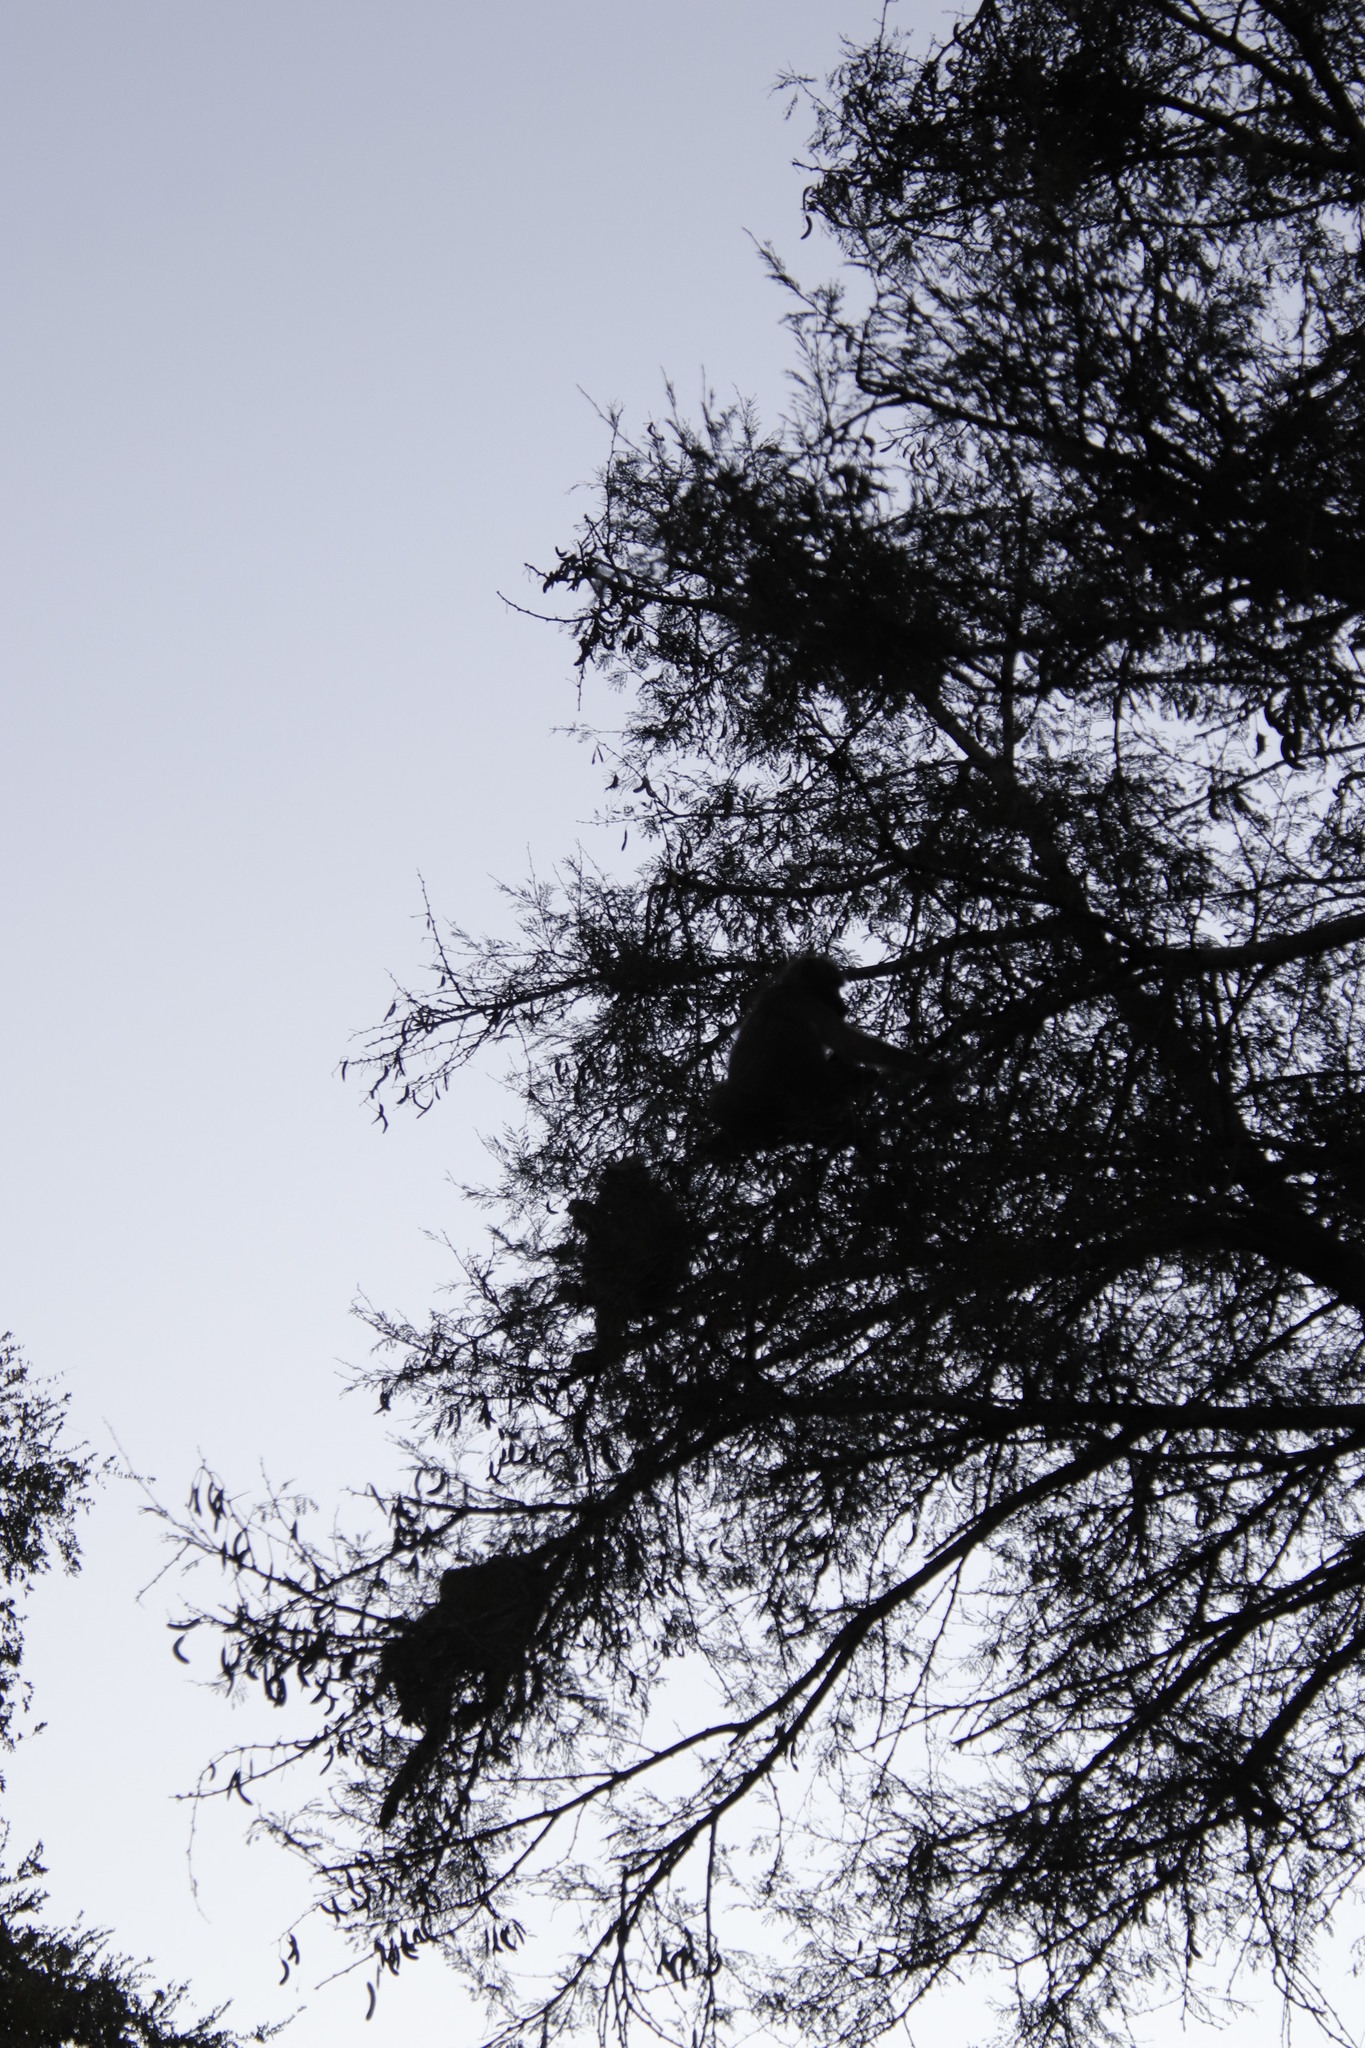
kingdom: Animalia
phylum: Chordata
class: Mammalia
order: Primates
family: Cercopithecidae
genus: Papio
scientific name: Papio ursinus
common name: Chacma baboon
